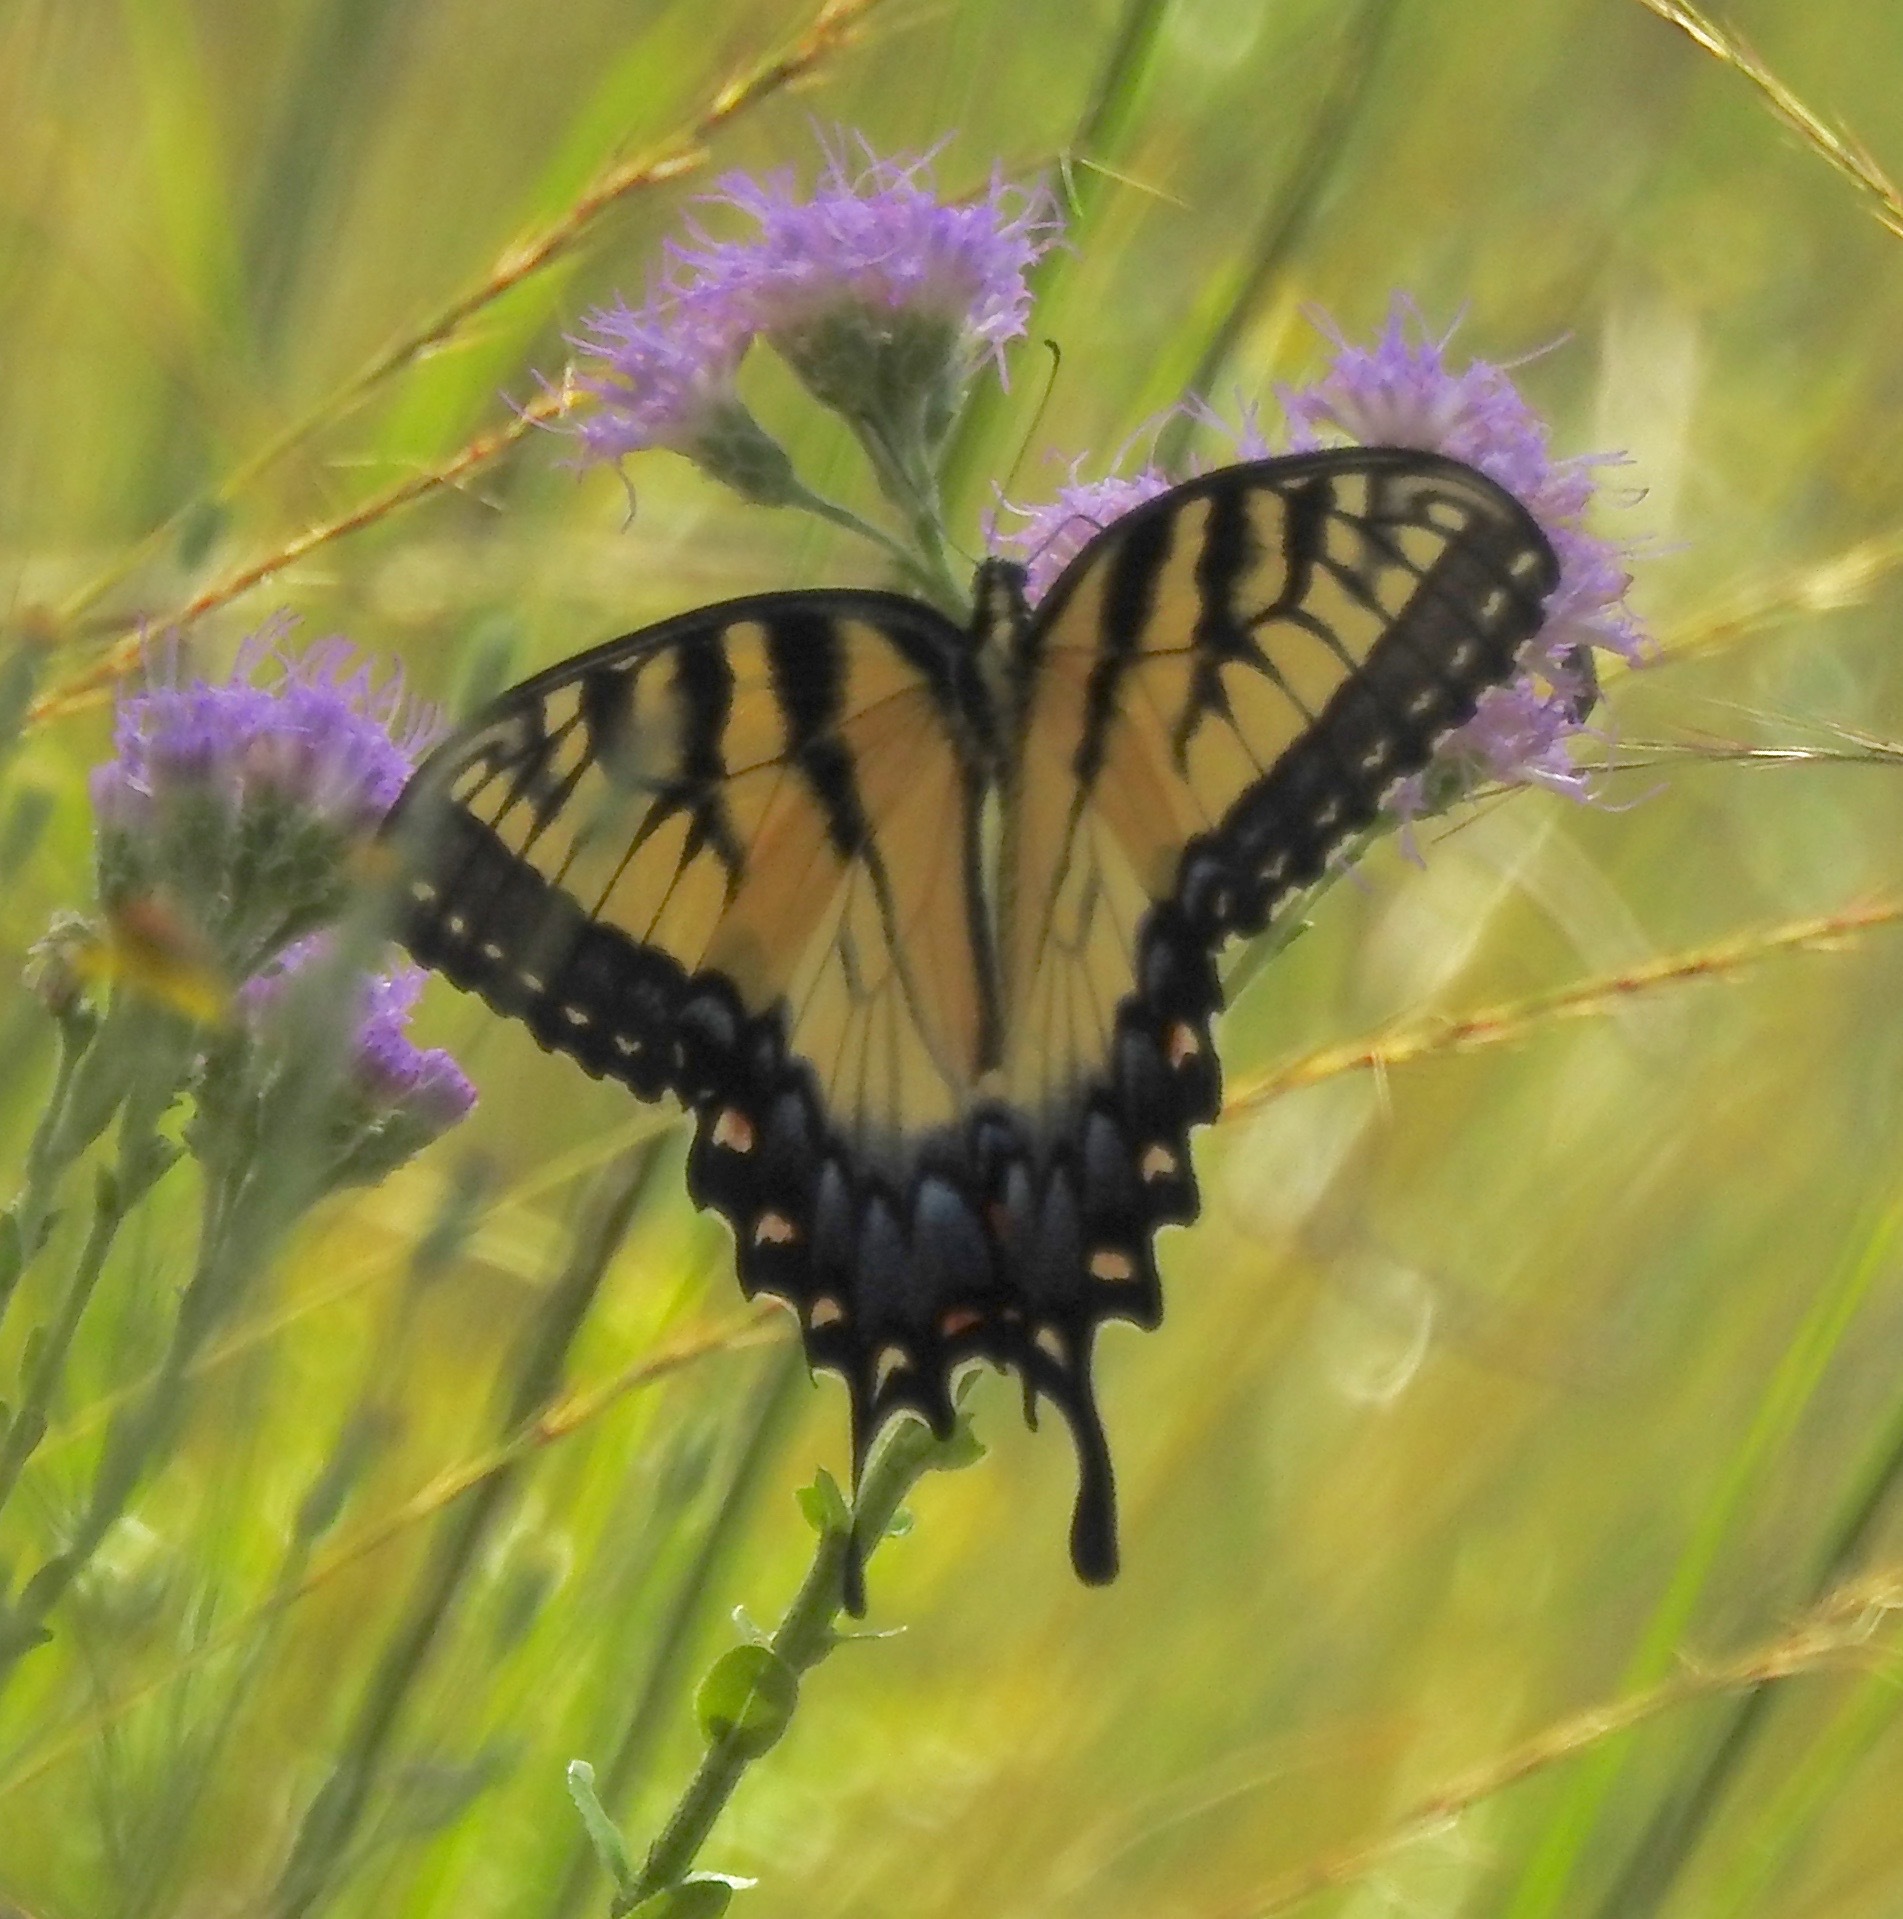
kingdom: Animalia
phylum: Arthropoda
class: Insecta
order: Lepidoptera
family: Papilionidae
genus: Papilio
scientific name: Papilio glaucus
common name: Tiger swallowtail
